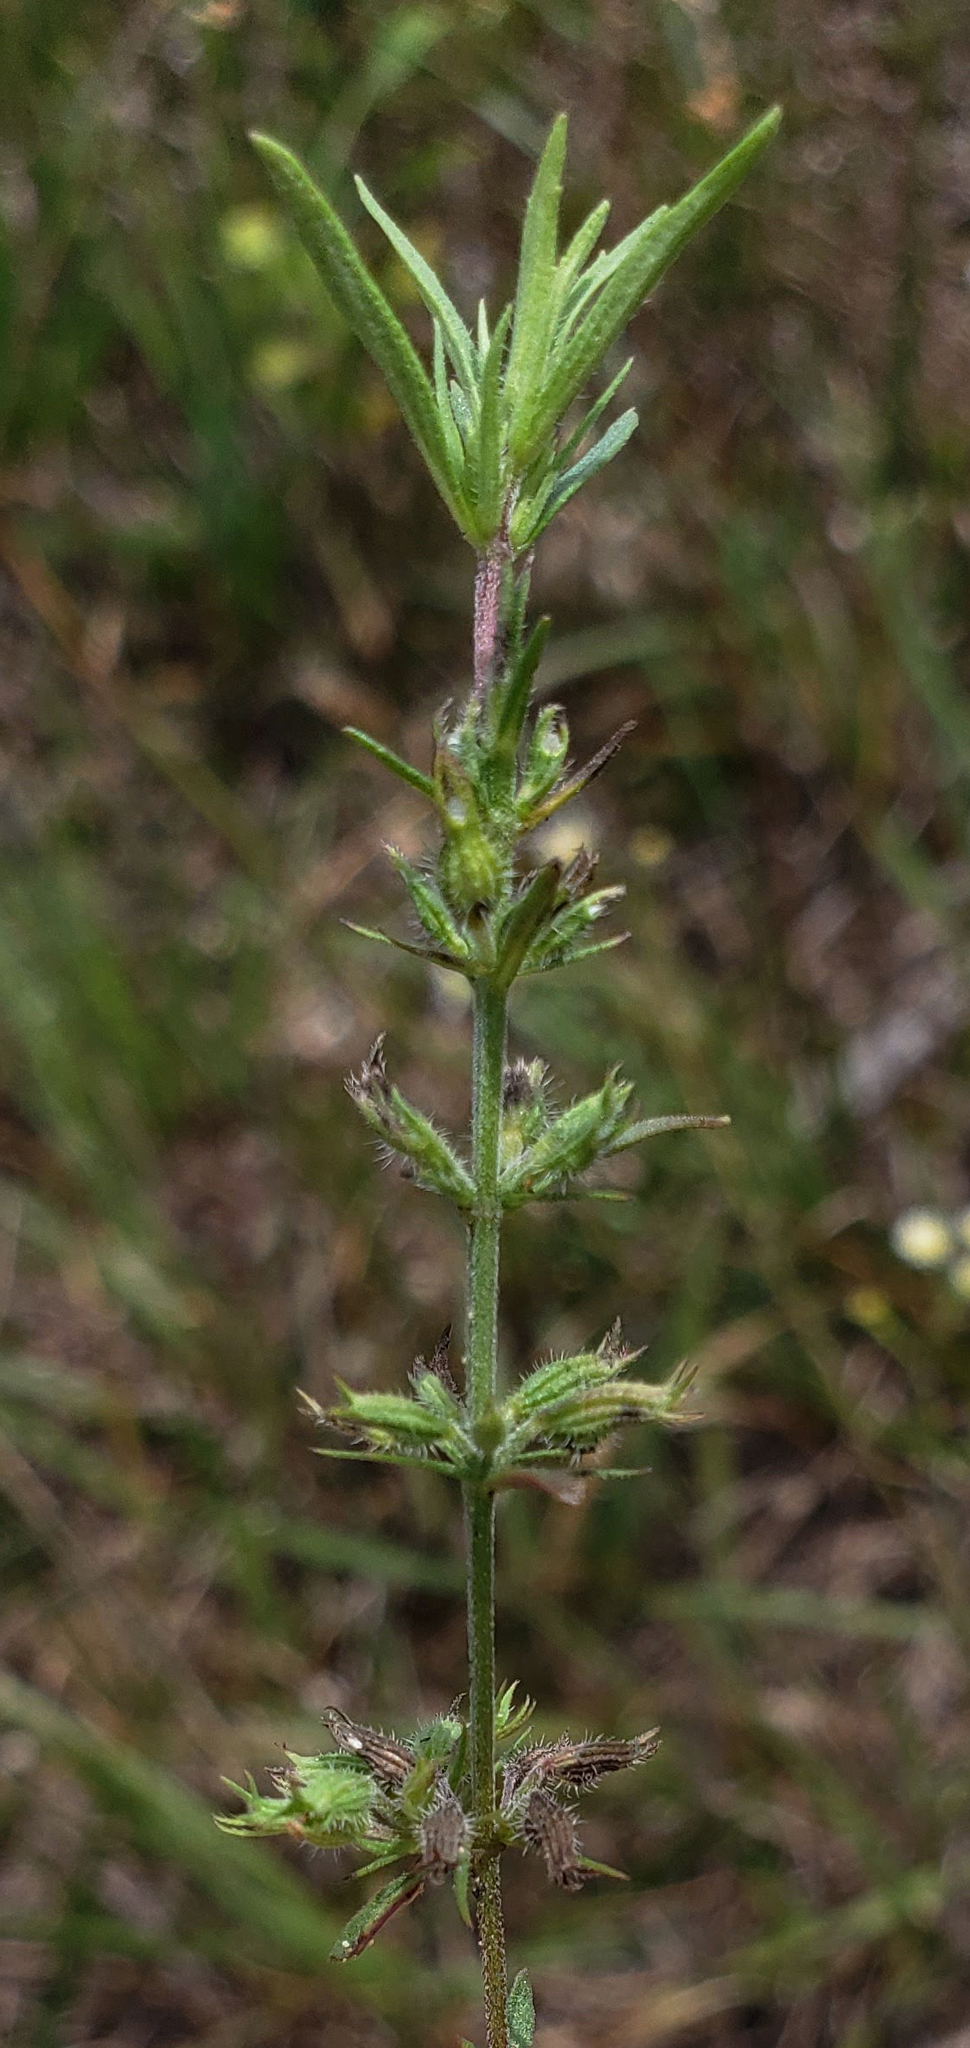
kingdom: Plantae
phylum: Tracheophyta
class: Magnoliopsida
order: Lamiales
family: Lamiaceae
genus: Hedeoma
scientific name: Hedeoma hispida
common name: Mock pennyroyal
